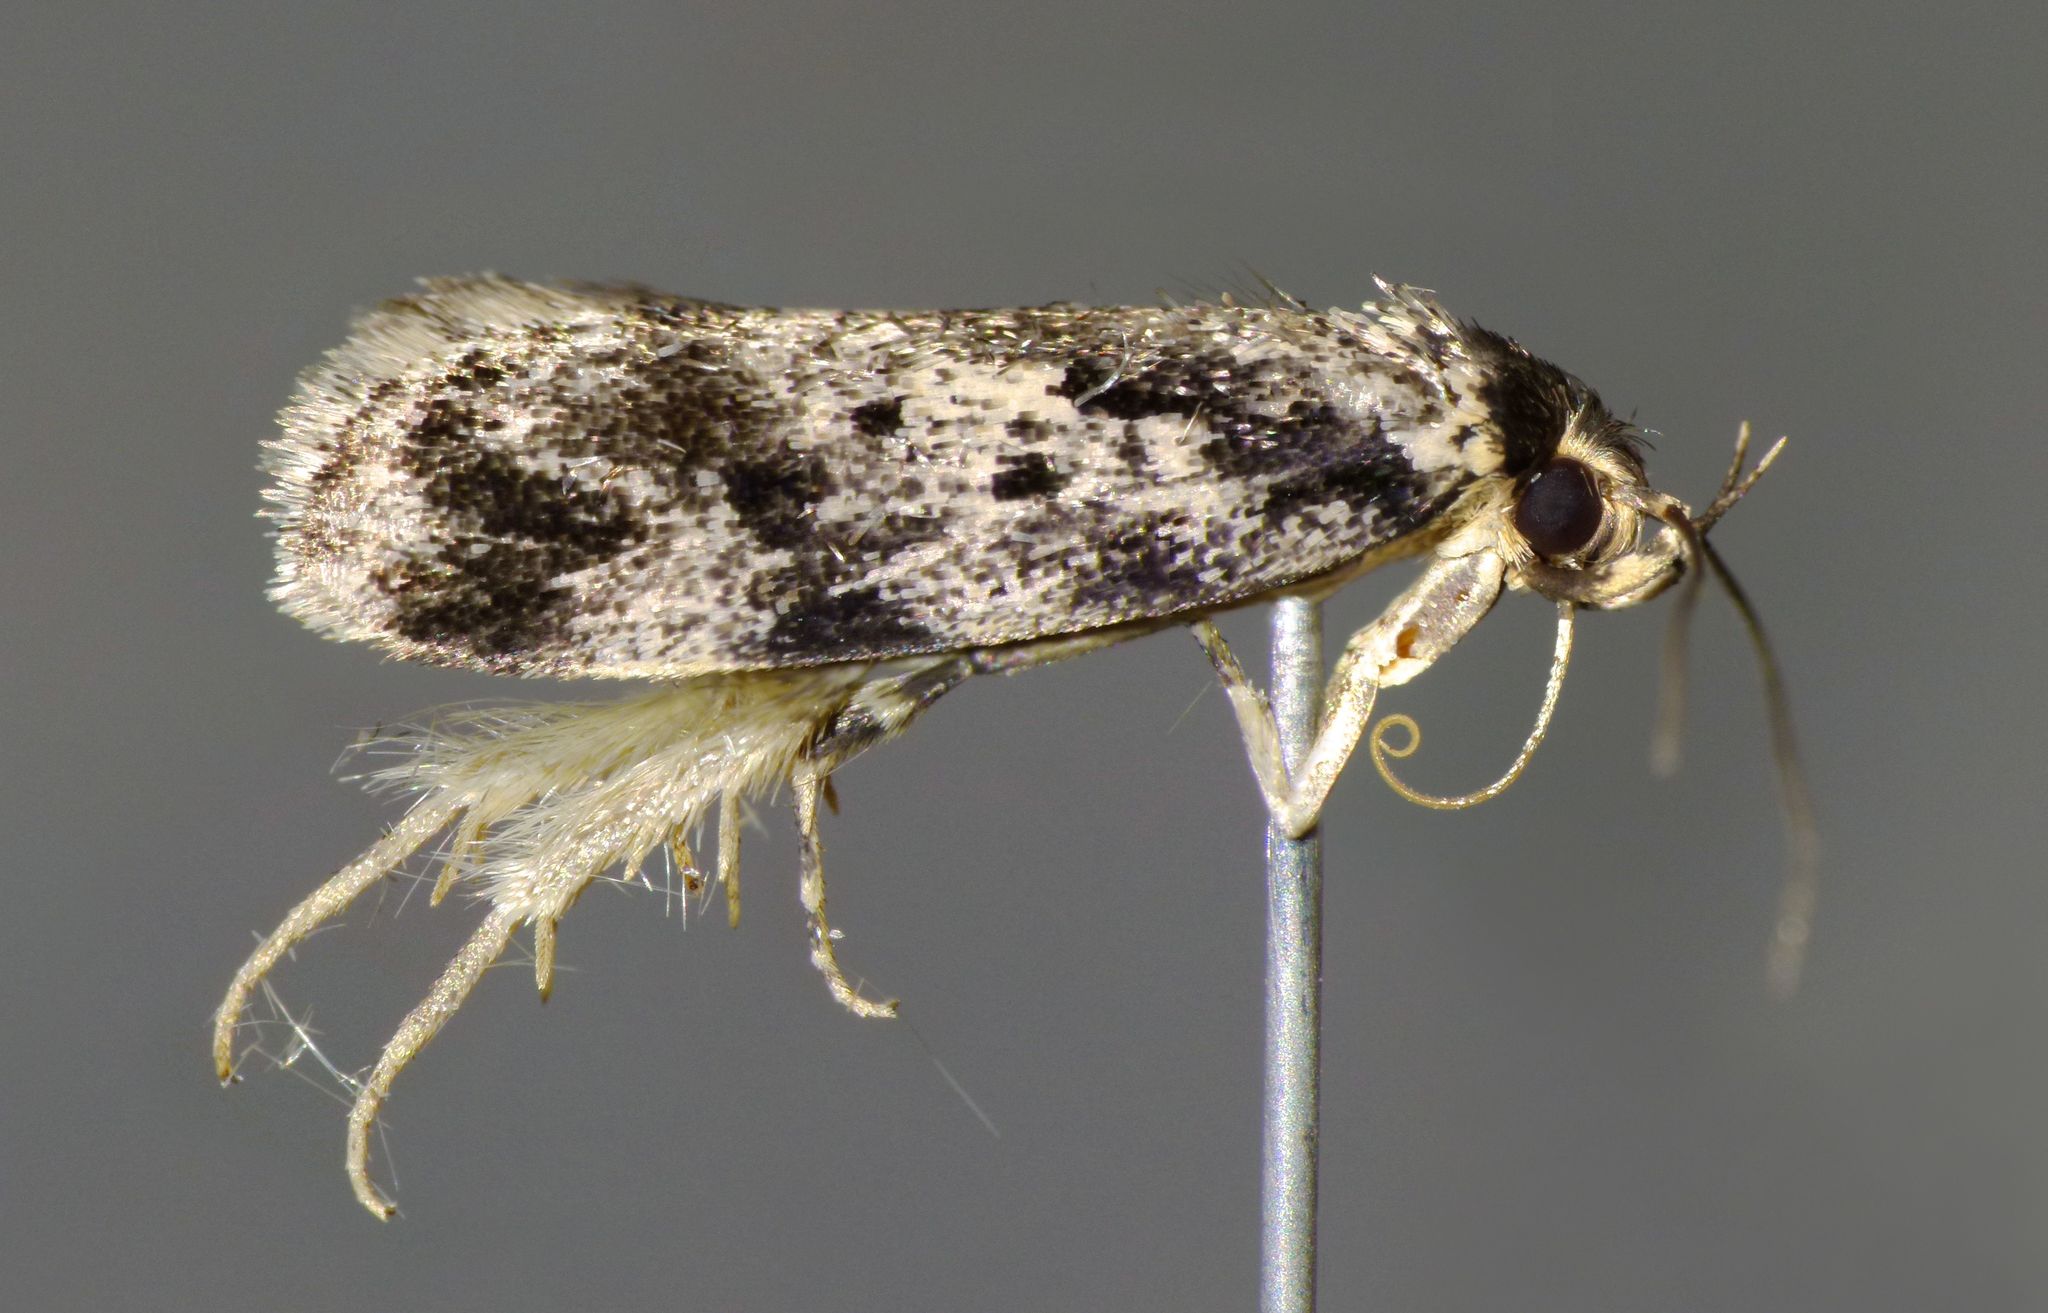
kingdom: Animalia
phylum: Arthropoda
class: Insecta
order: Lepidoptera
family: Oecophoridae
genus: Barea
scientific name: Barea confusella
